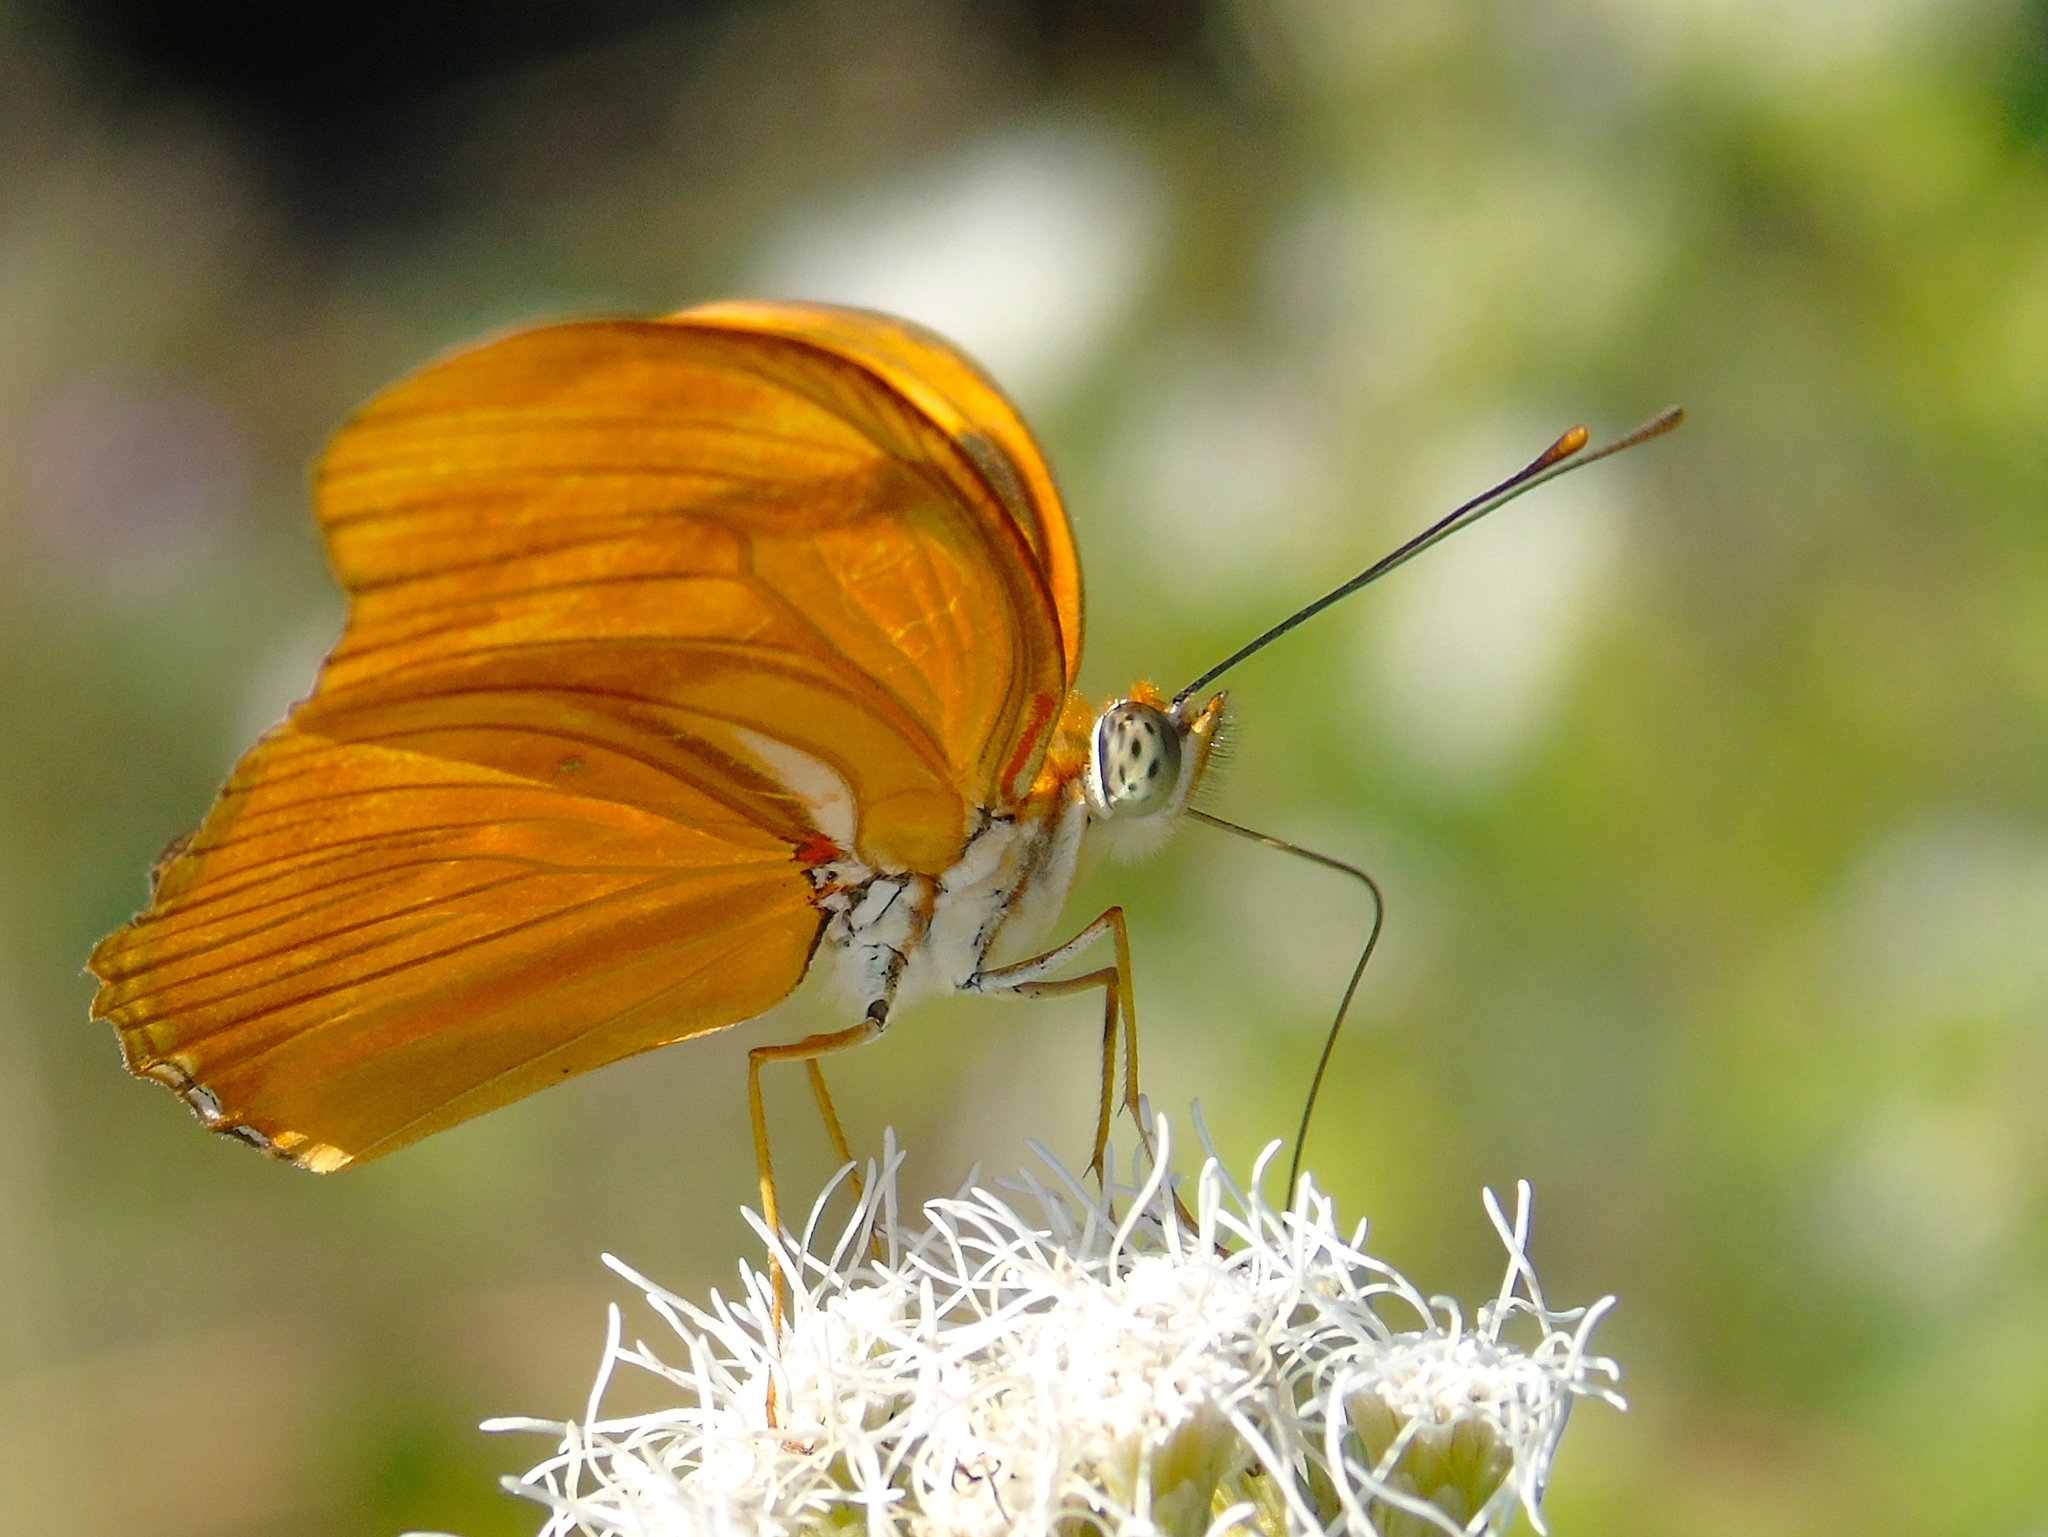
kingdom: Animalia
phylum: Arthropoda
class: Insecta
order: Lepidoptera
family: Nymphalidae
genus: Dryas
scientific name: Dryas iulia
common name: Flambeau
